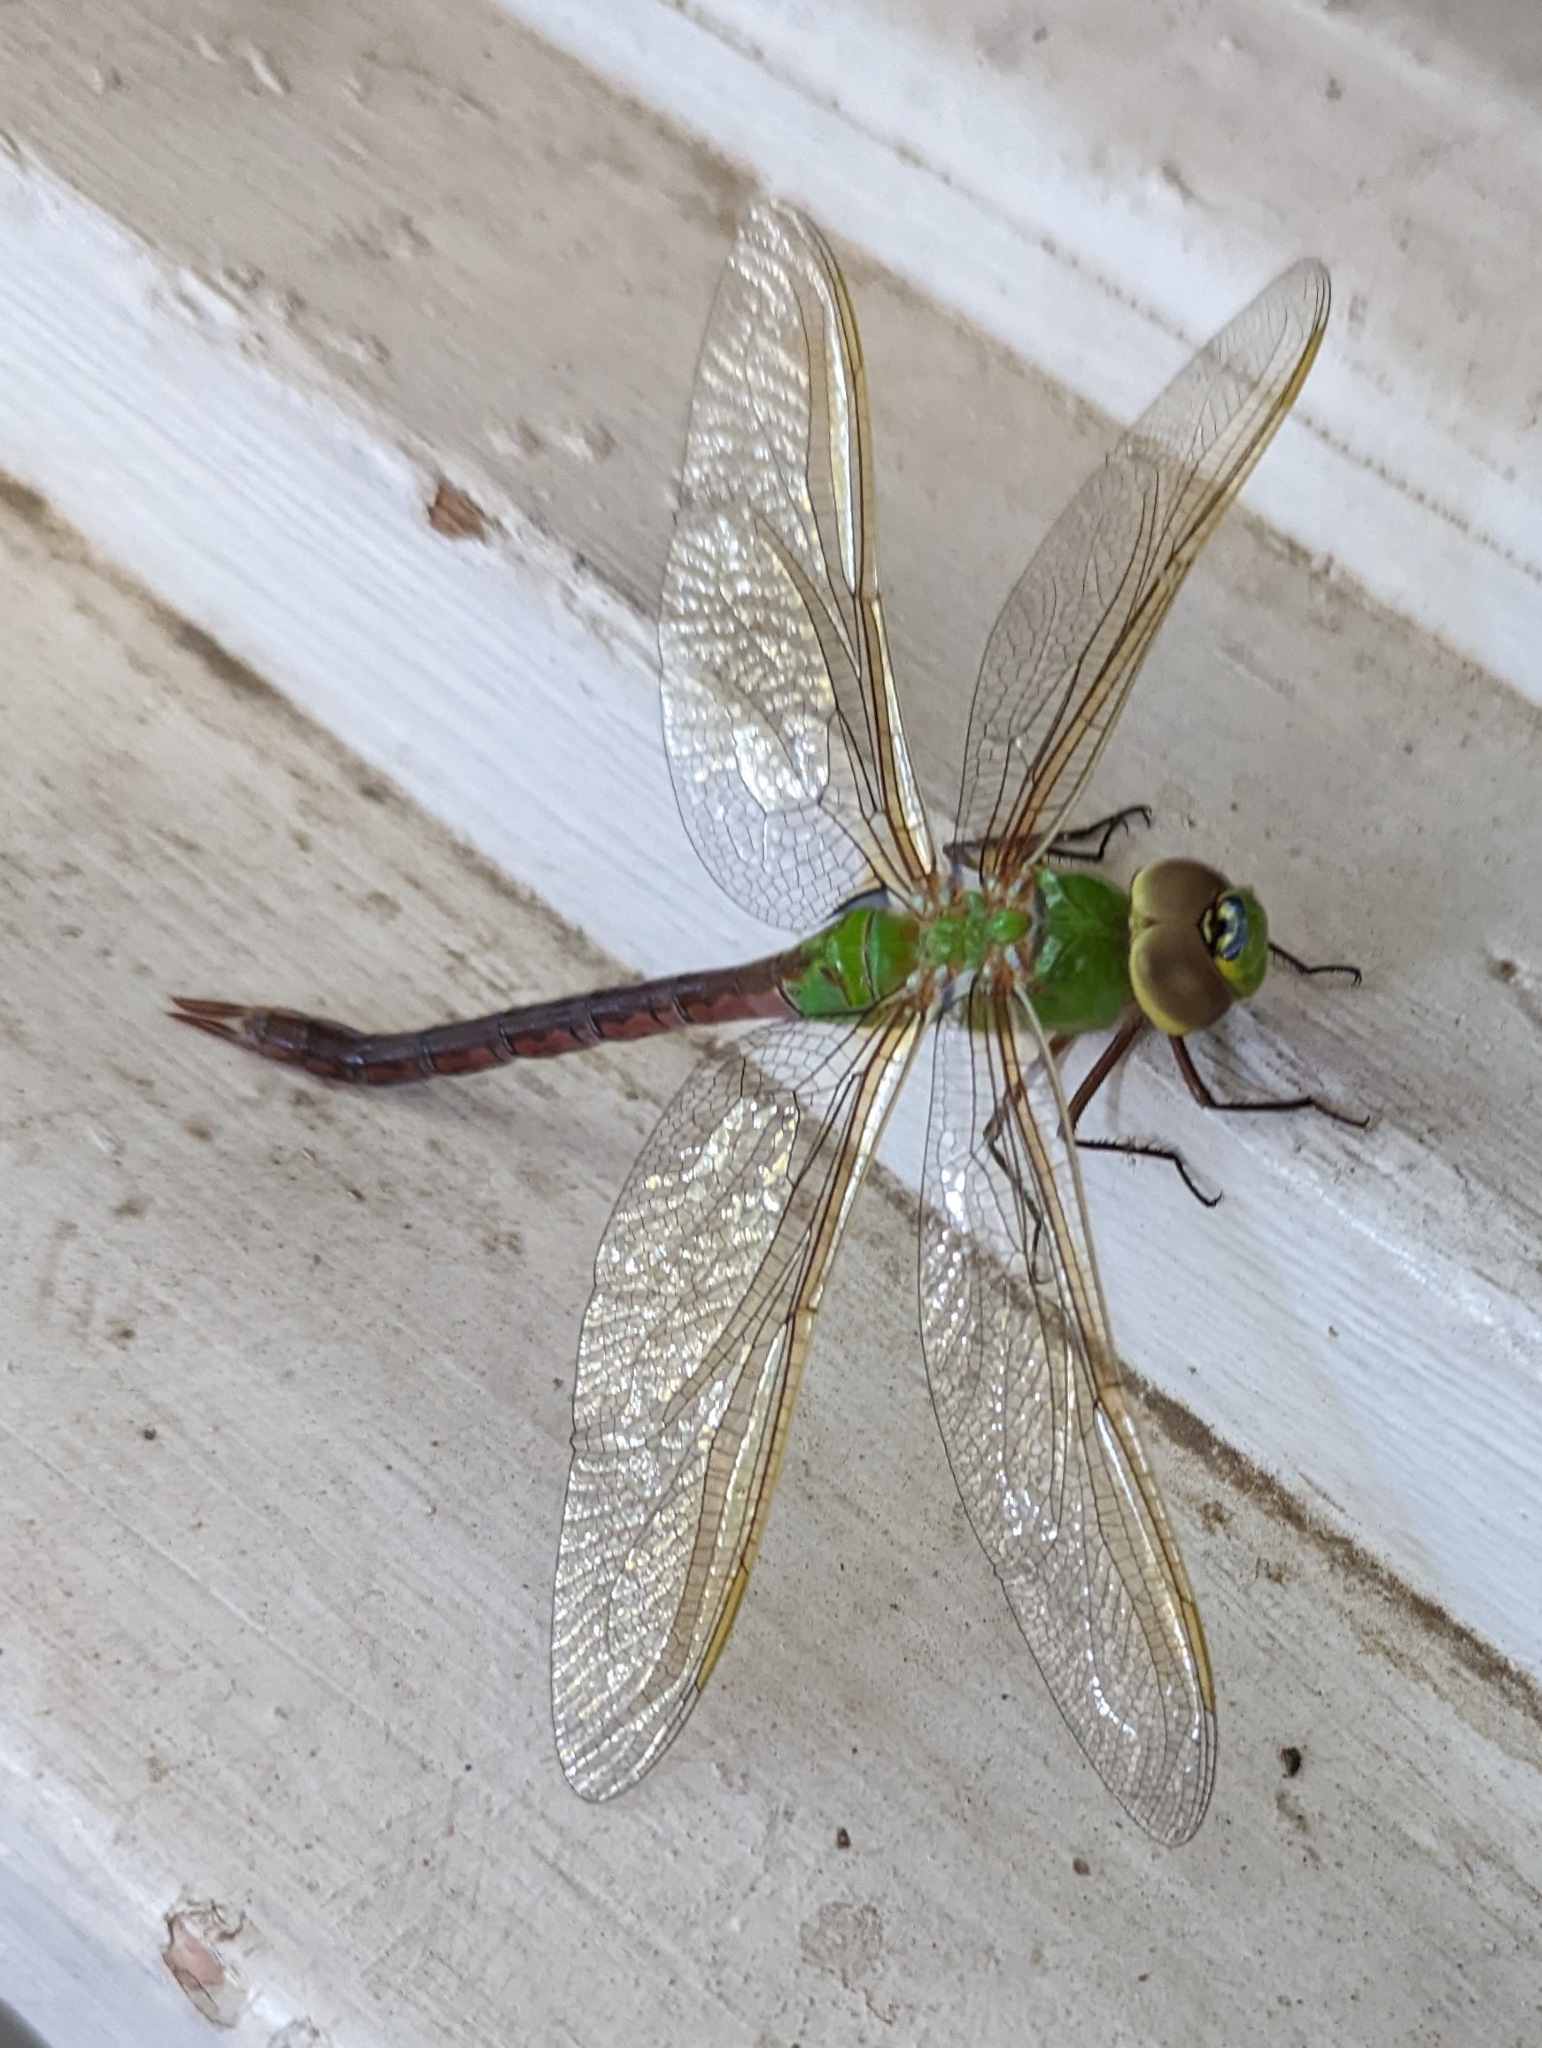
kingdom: Animalia
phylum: Arthropoda
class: Insecta
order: Odonata
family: Aeshnidae
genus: Anax
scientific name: Anax junius
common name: Common green darner
